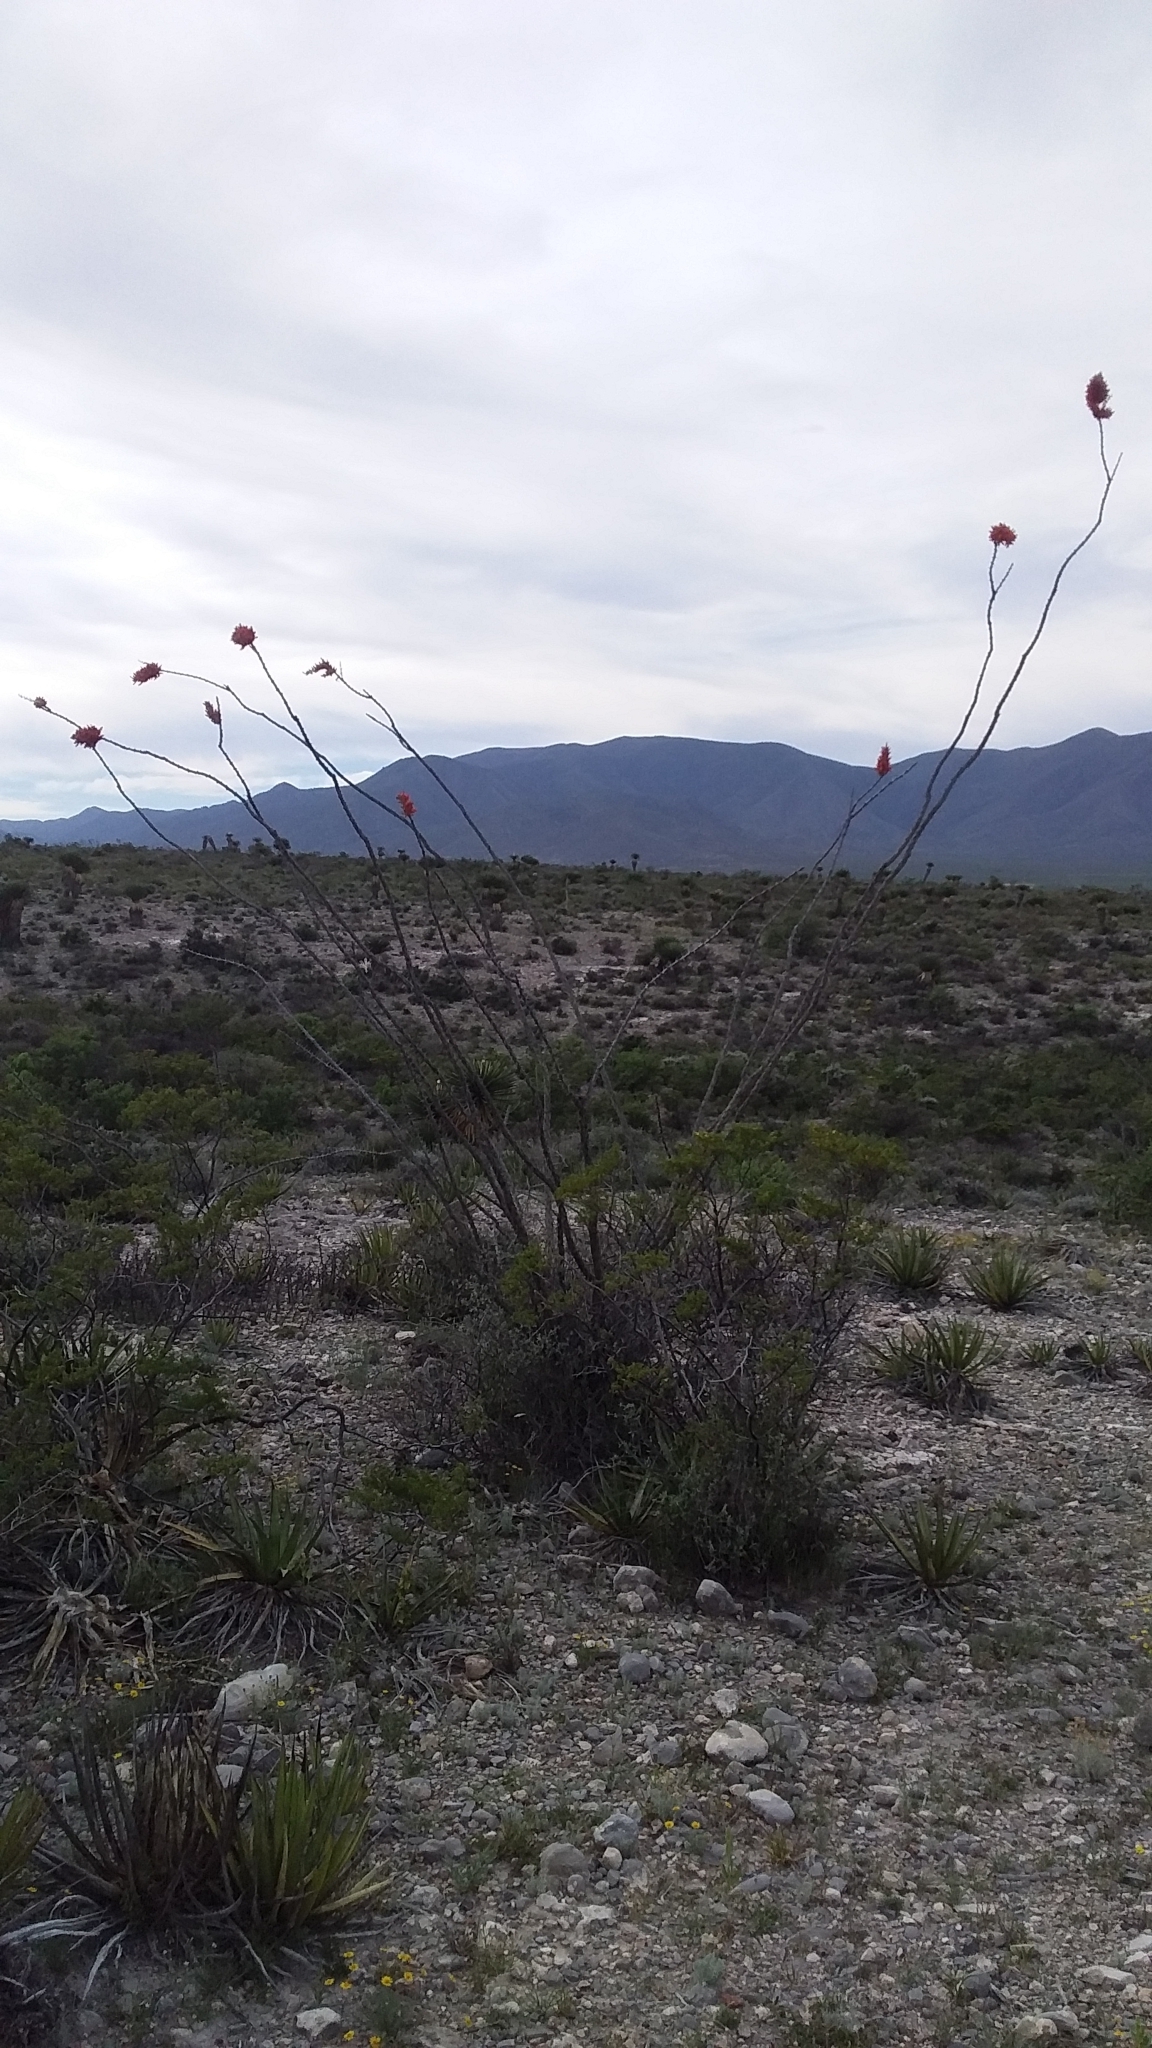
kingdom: Plantae
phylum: Tracheophyta
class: Magnoliopsida
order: Ericales
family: Fouquieriaceae
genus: Fouquieria
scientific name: Fouquieria splendens
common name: Vine-cactus
